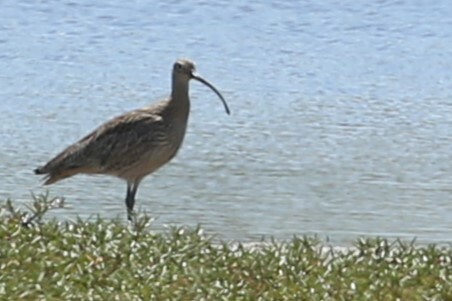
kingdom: Animalia
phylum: Chordata
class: Aves
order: Charadriiformes
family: Scolopacidae
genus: Numenius
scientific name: Numenius madagascariensis
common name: Far eastern curlew
